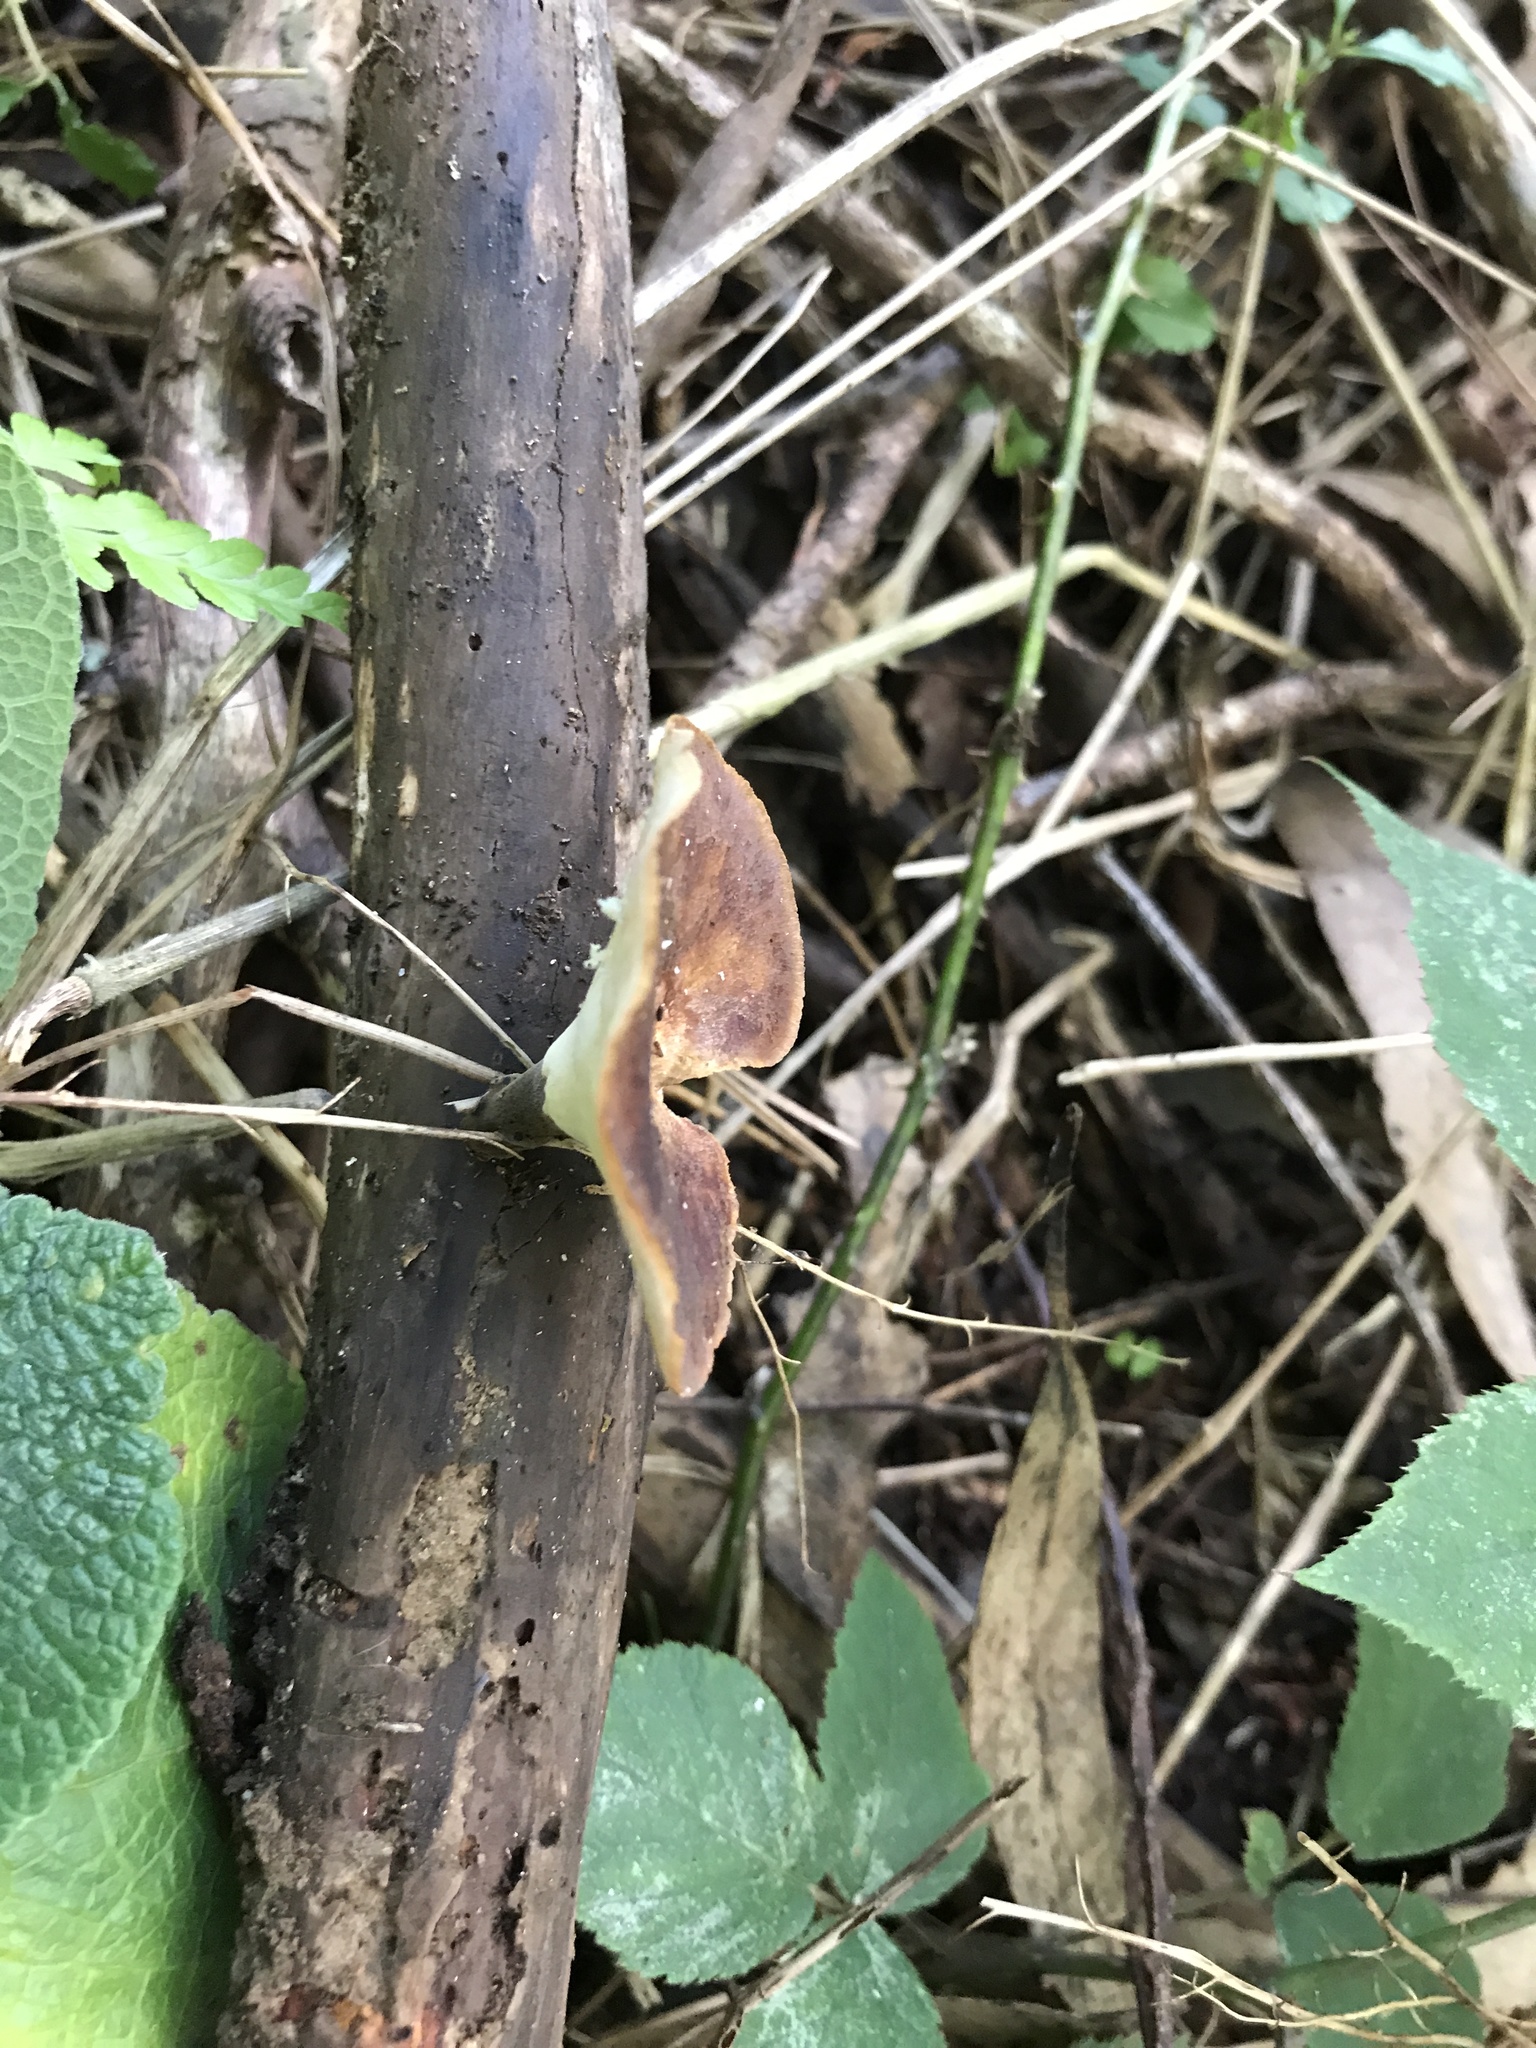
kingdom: Fungi
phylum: Basidiomycota
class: Agaricomycetes
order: Polyporales
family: Polyporaceae
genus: Picipes
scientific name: Picipes melanopus
